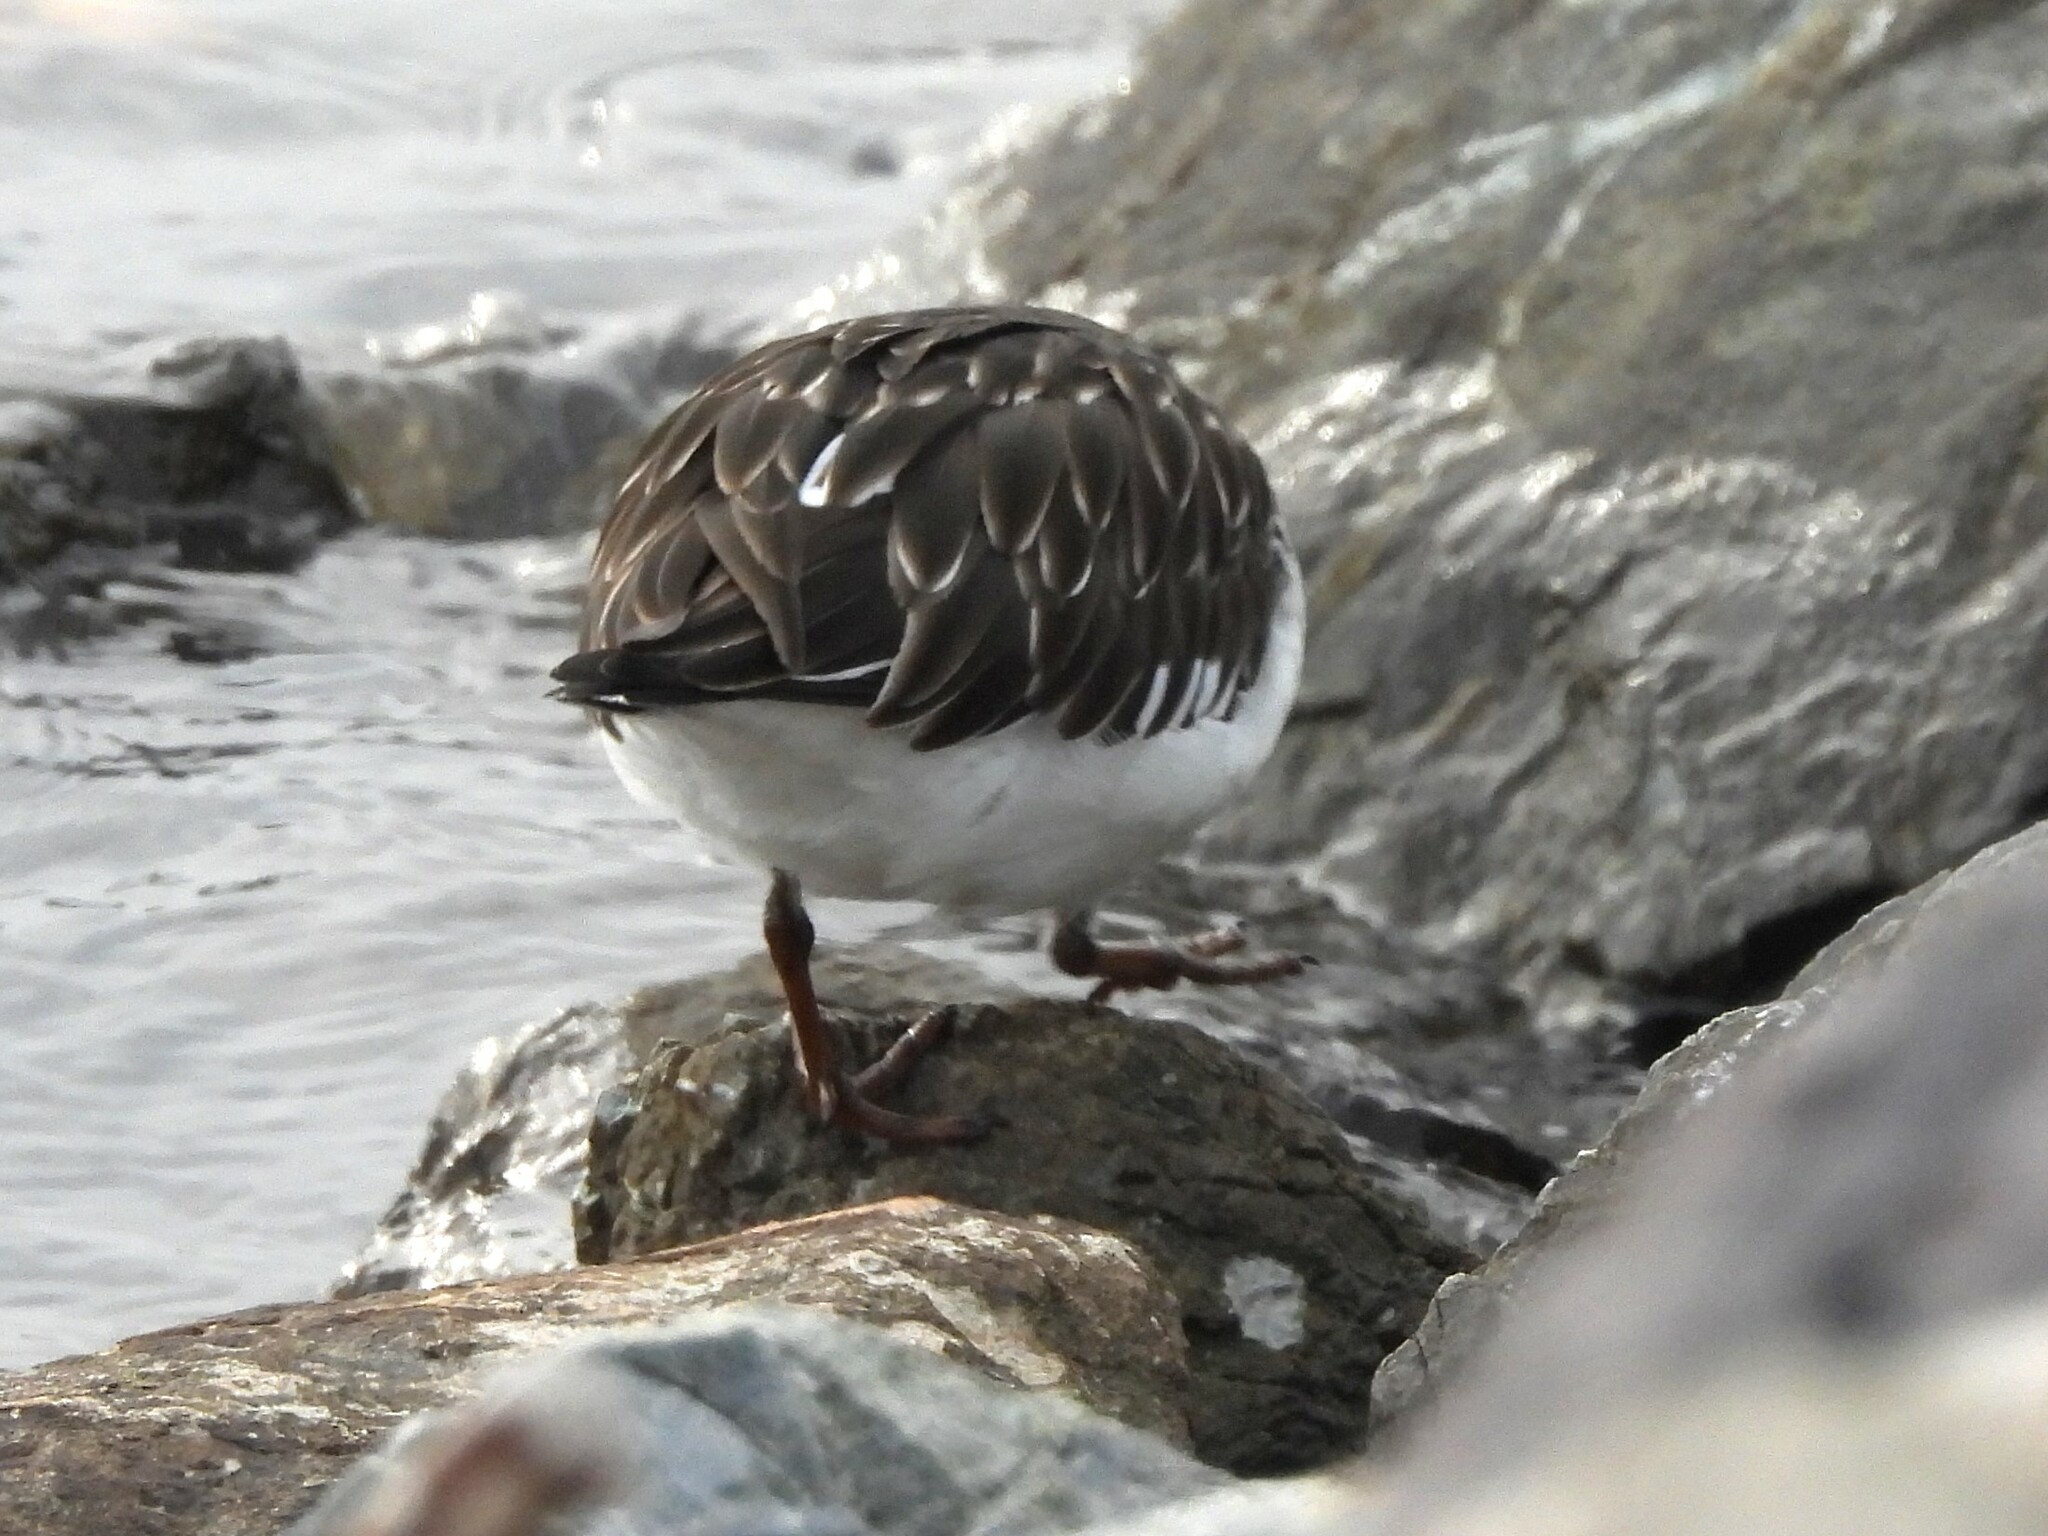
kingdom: Animalia
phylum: Chordata
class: Aves
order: Charadriiformes
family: Scolopacidae
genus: Arenaria
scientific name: Arenaria melanocephala
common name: Black turnstone
